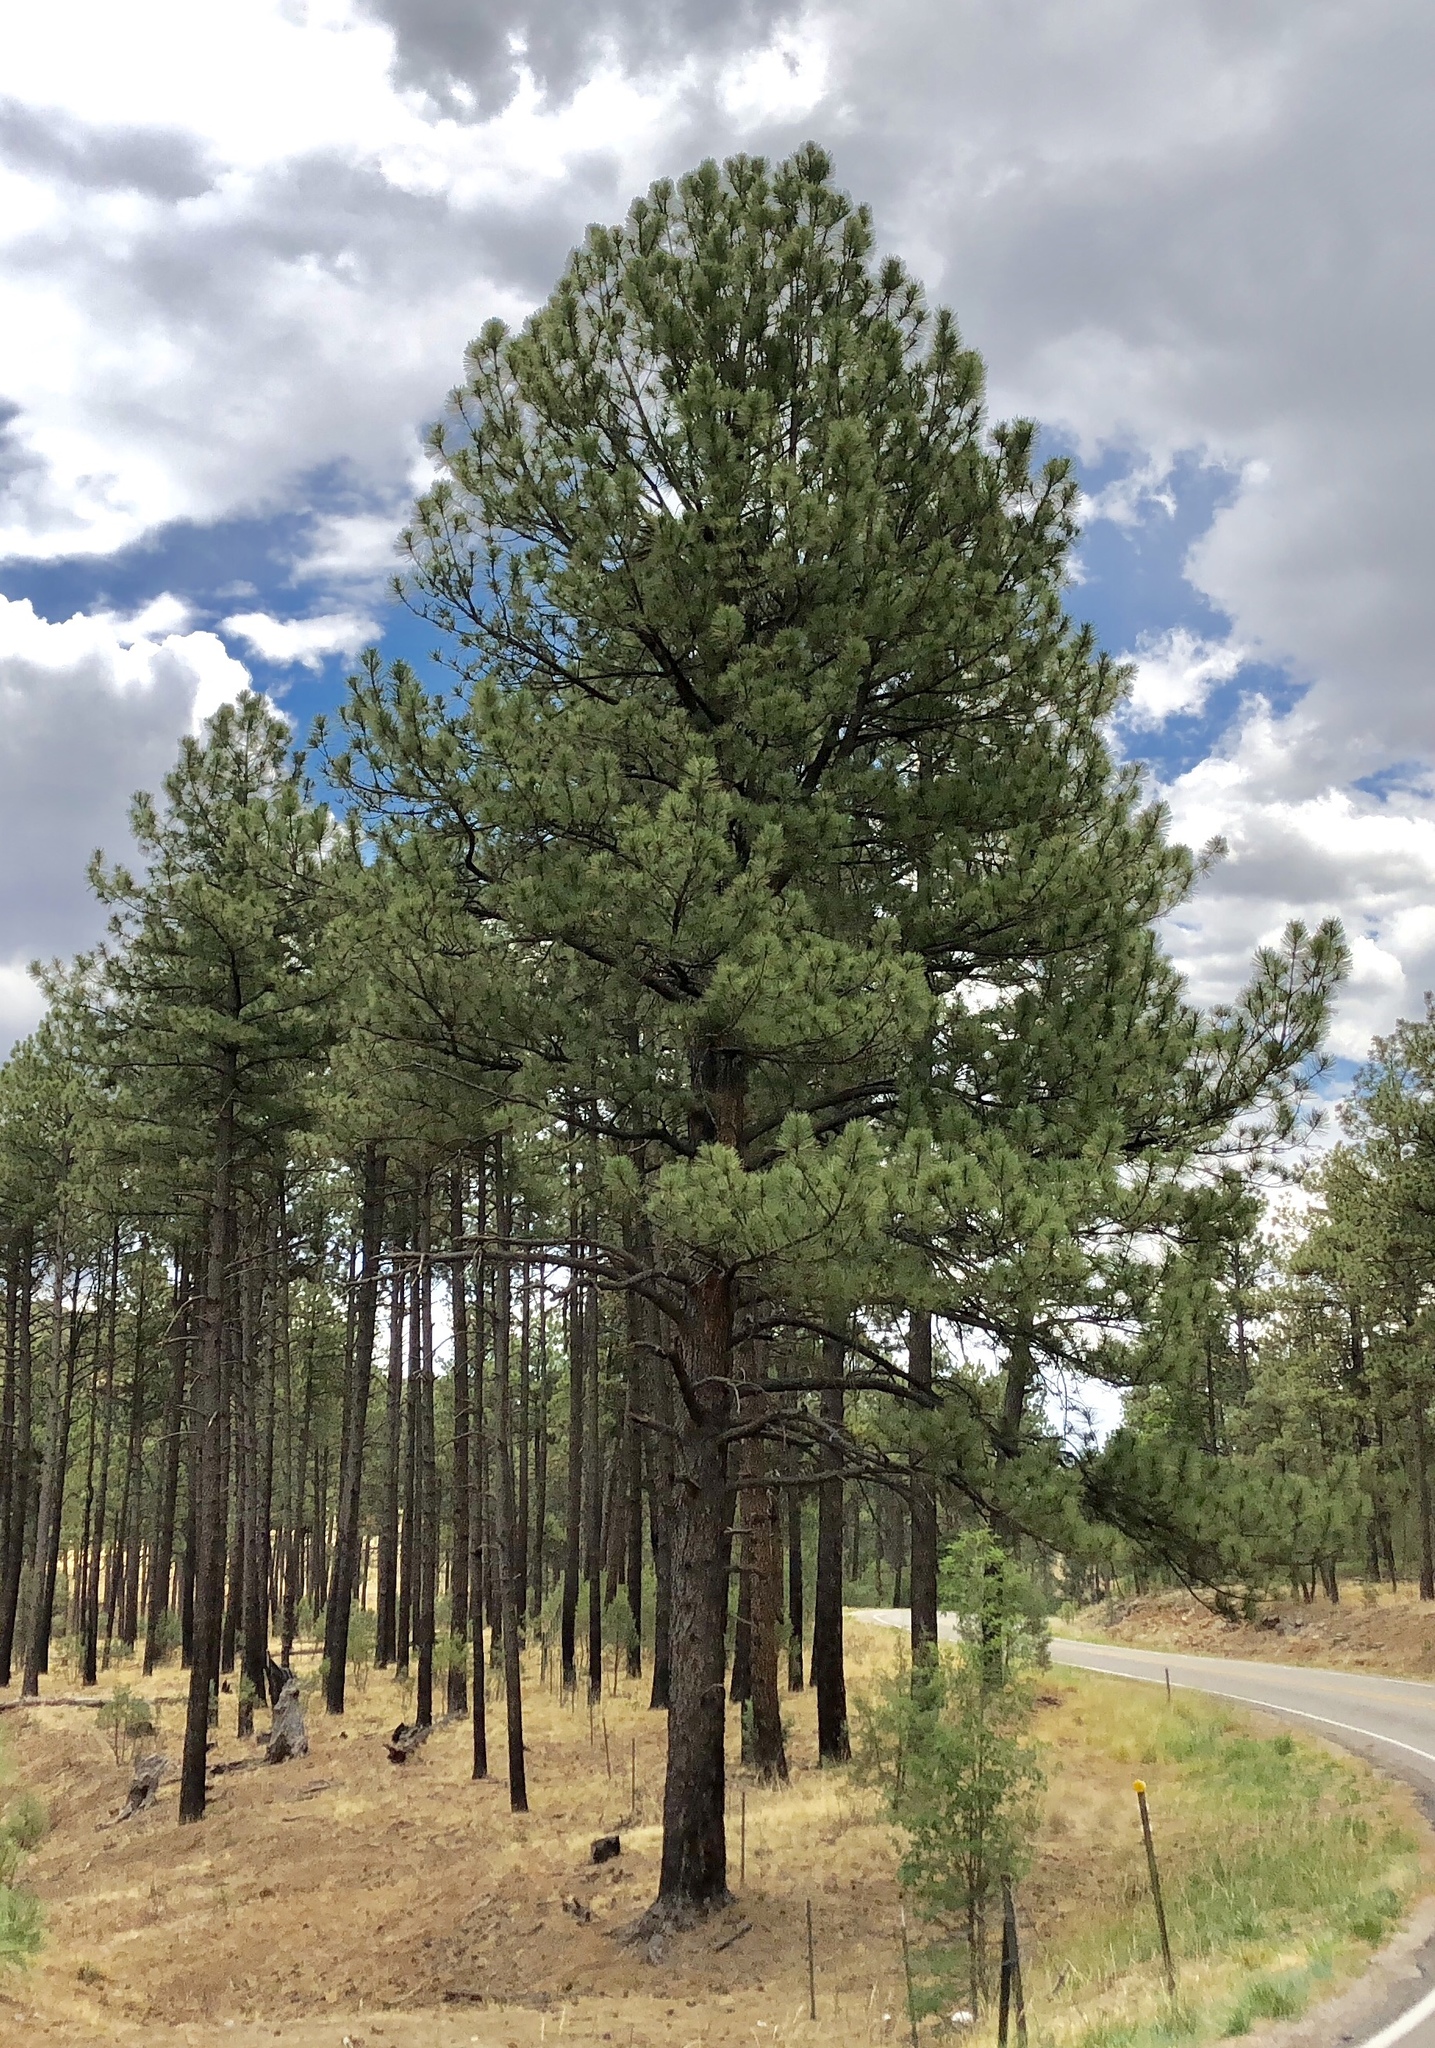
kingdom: Plantae
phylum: Tracheophyta
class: Pinopsida
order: Pinales
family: Pinaceae
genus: Pinus
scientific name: Pinus ponderosa
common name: Western yellow-pine
